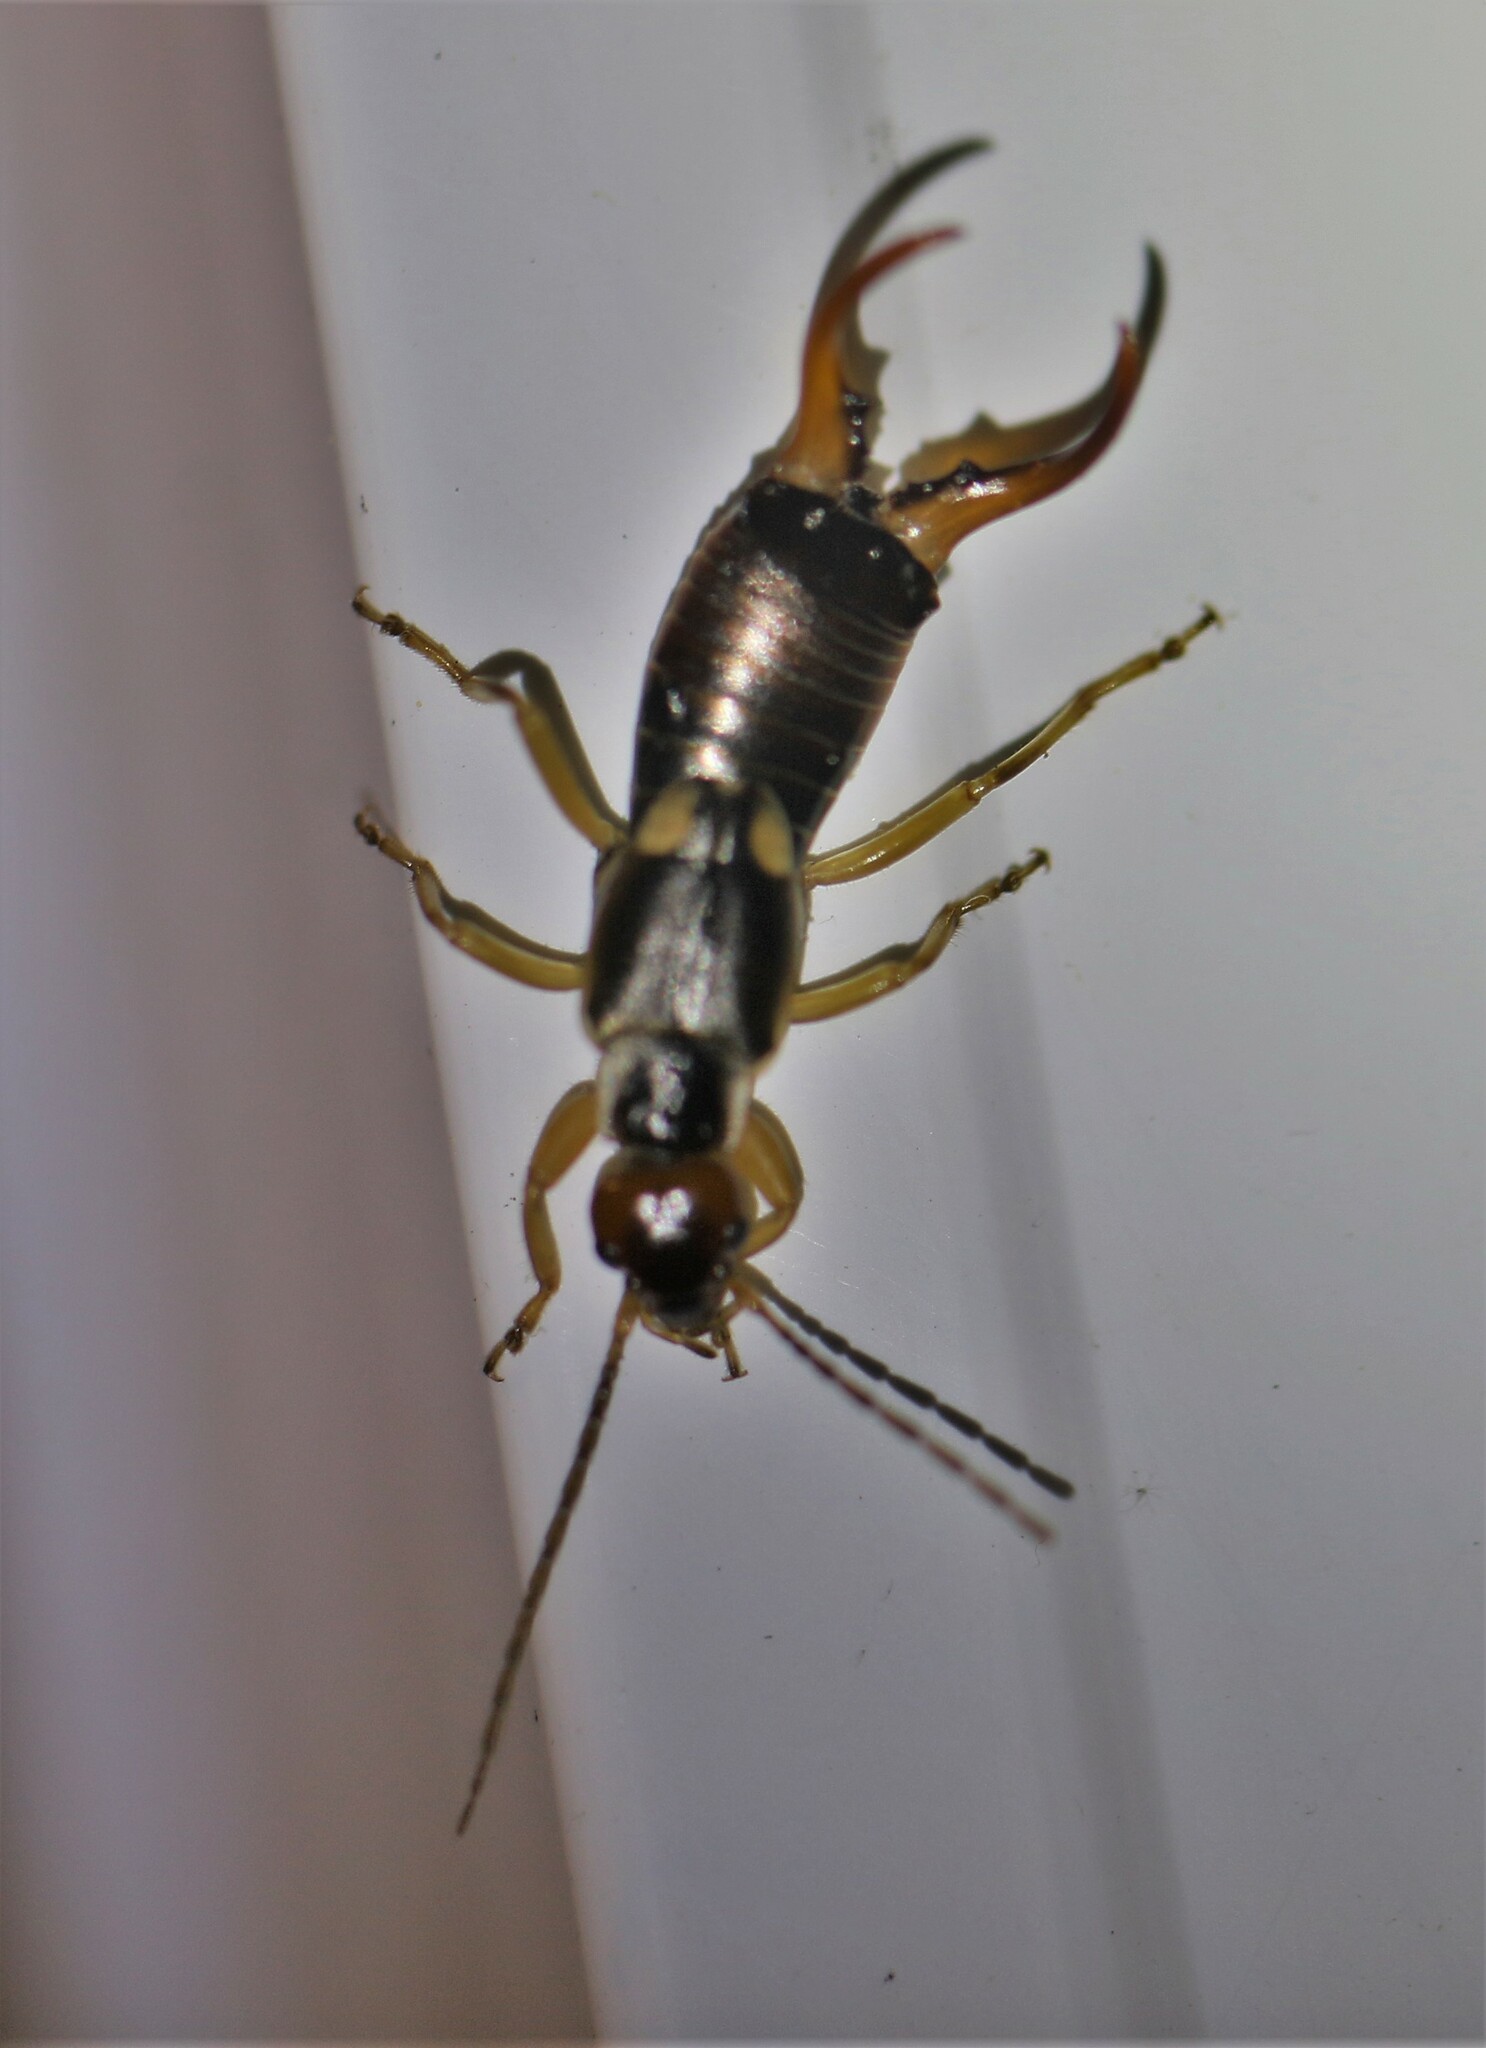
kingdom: Animalia
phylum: Arthropoda
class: Insecta
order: Dermaptera
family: Forficulidae
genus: Forficula
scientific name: Forficula
